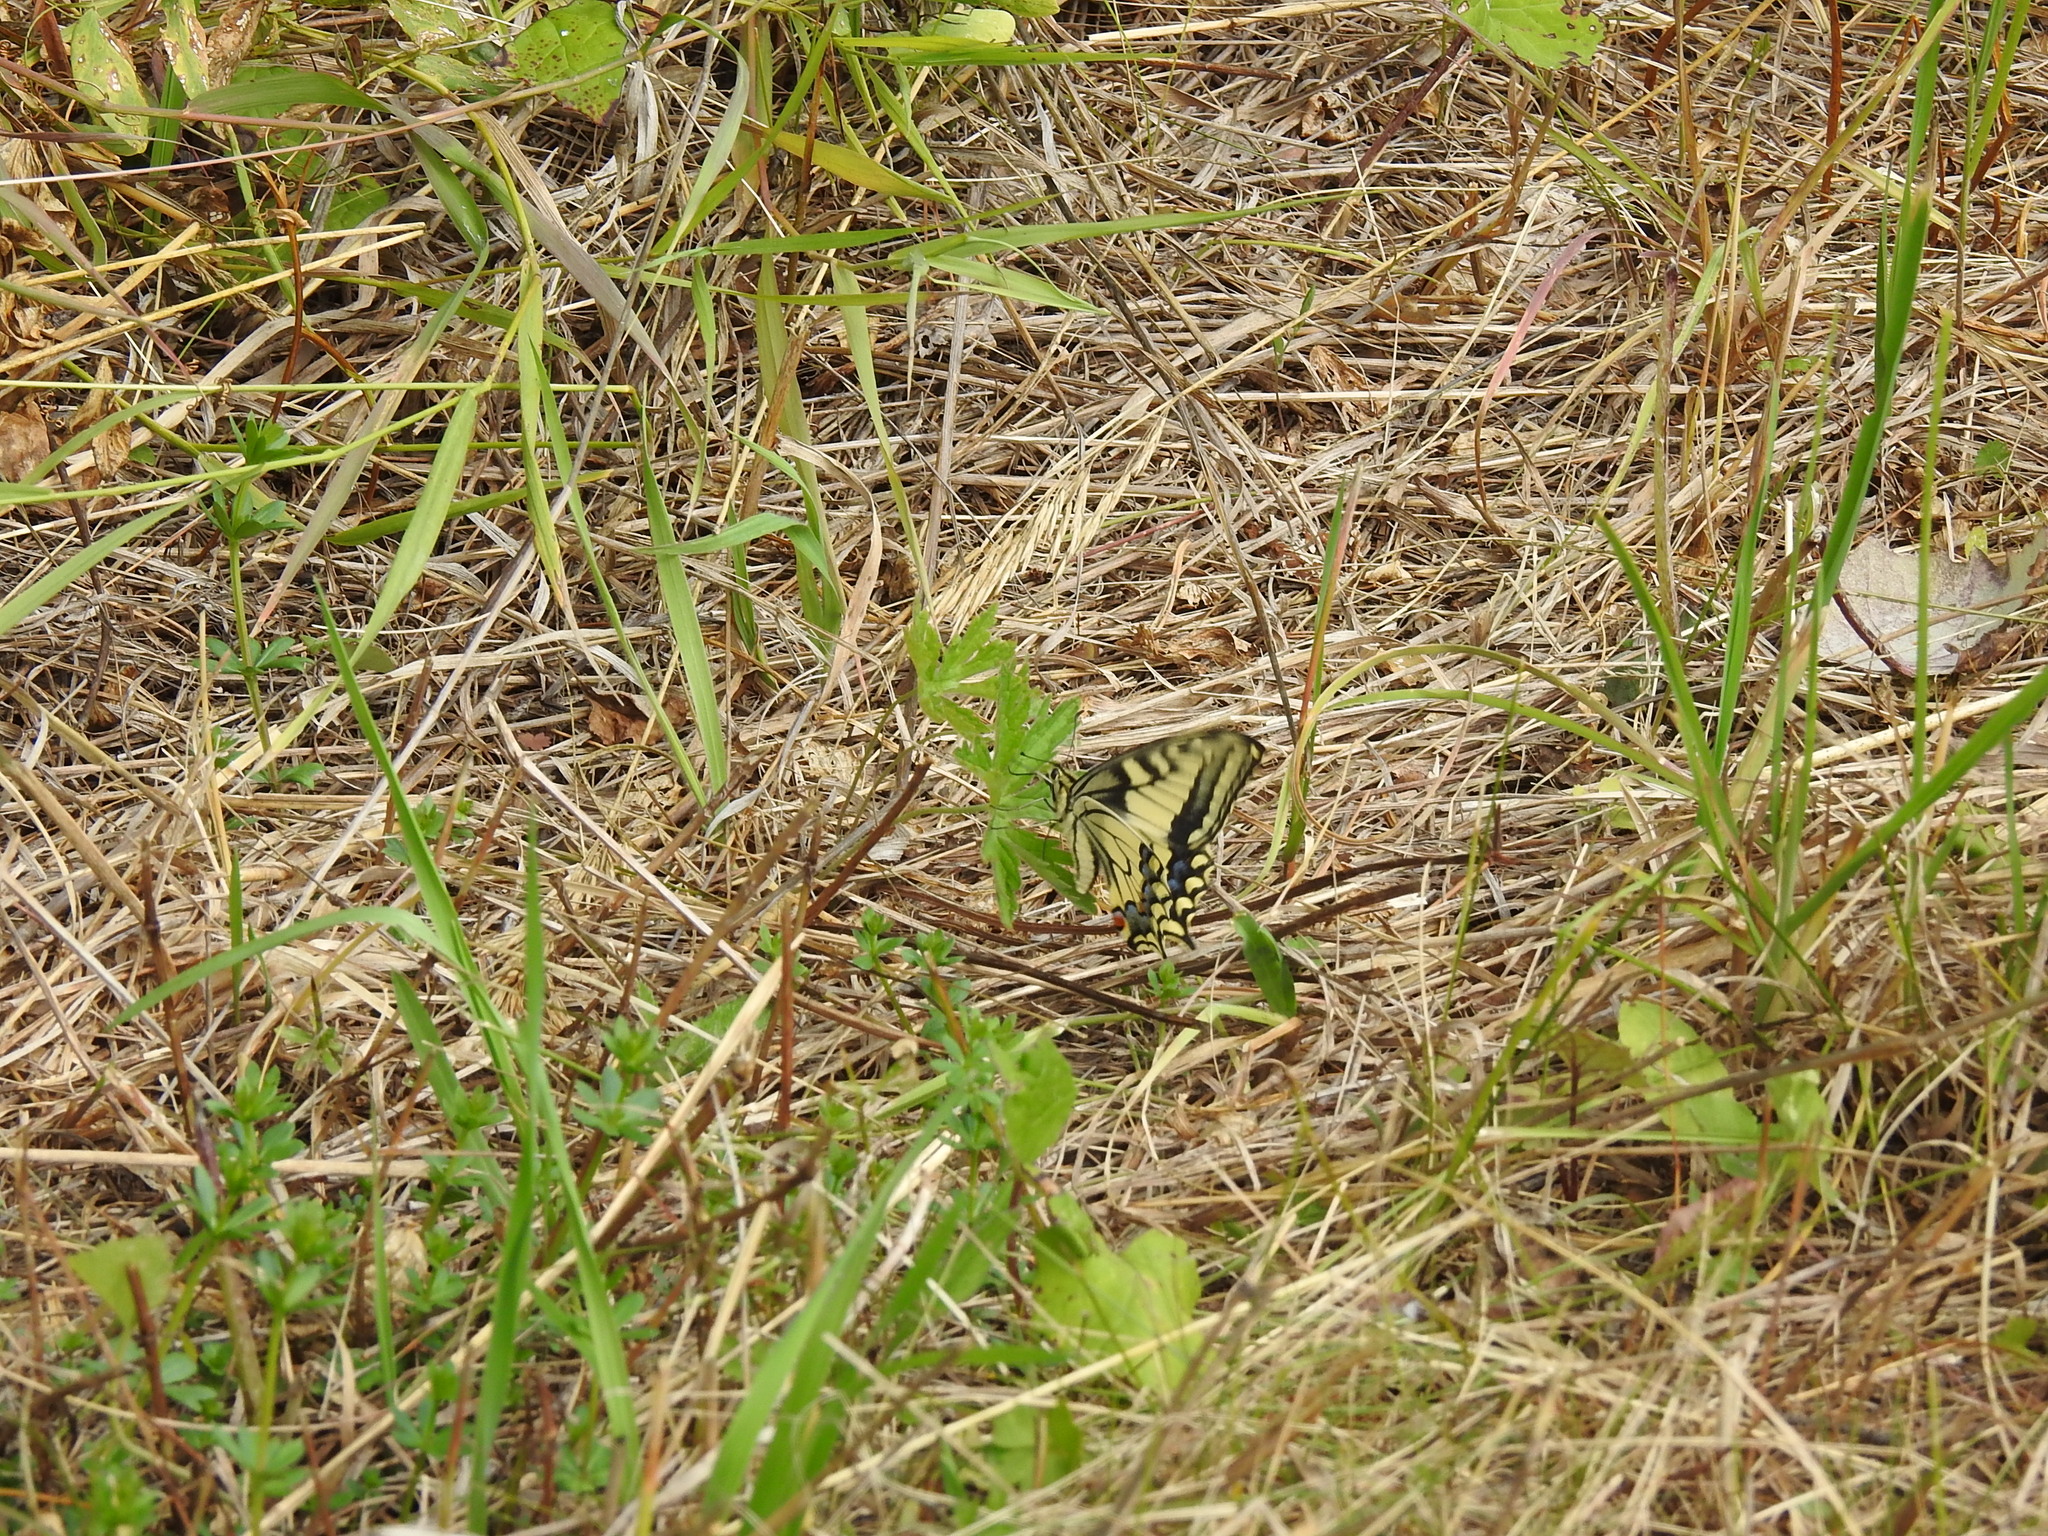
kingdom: Animalia
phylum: Arthropoda
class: Insecta
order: Lepidoptera
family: Papilionidae
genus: Papilio
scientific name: Papilio machaon
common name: Swallowtail
